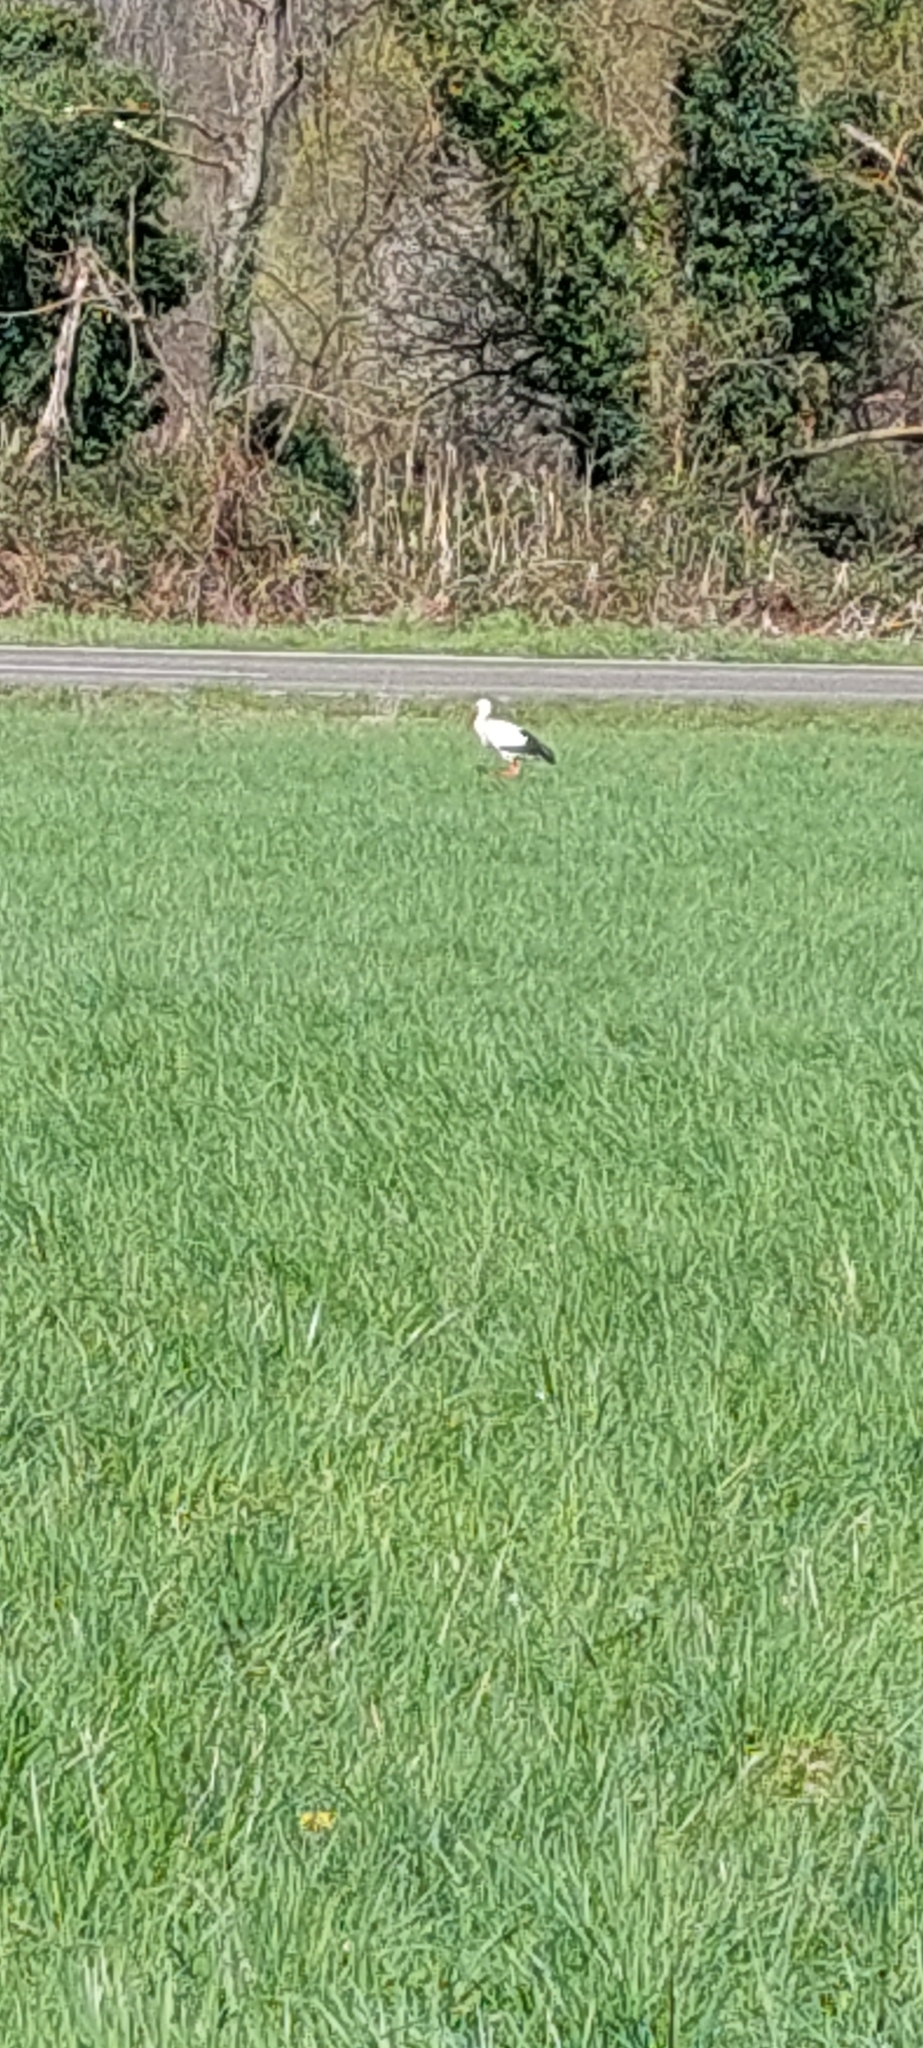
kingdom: Animalia
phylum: Chordata
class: Aves
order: Ciconiiformes
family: Ciconiidae
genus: Ciconia
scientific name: Ciconia ciconia
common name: White stork
